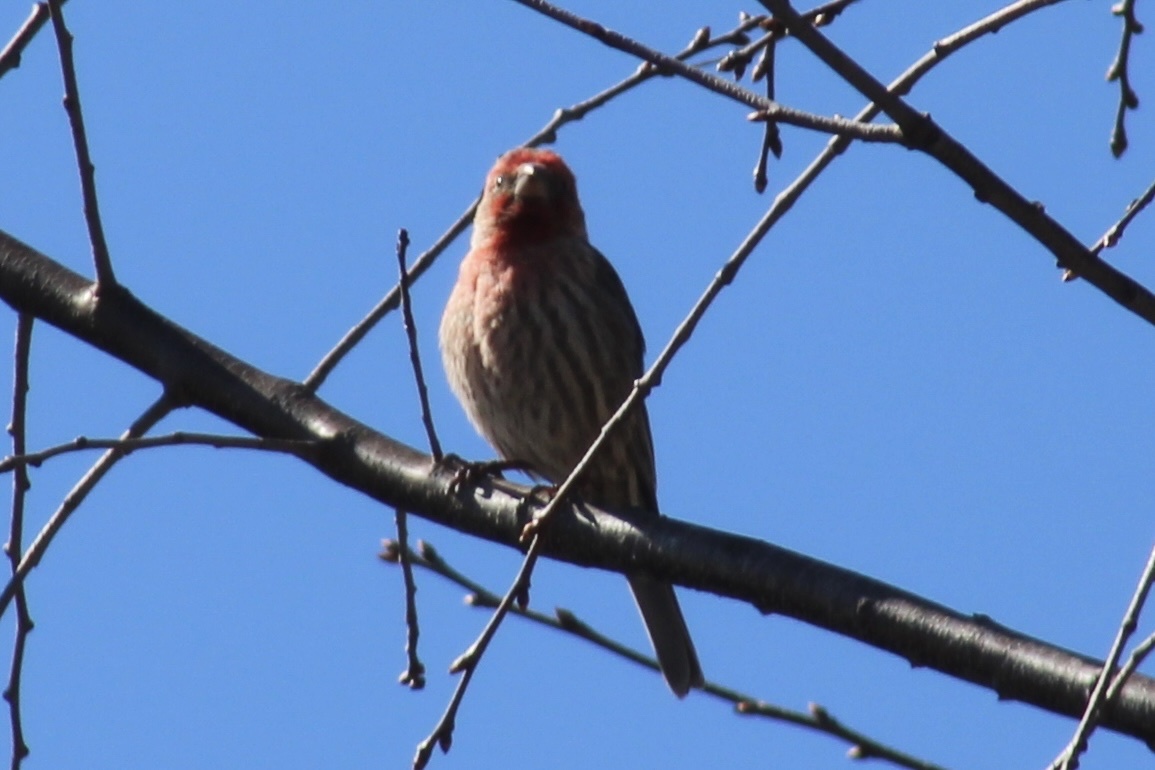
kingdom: Animalia
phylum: Chordata
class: Aves
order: Passeriformes
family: Fringillidae
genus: Haemorhous
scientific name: Haemorhous mexicanus
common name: House finch
